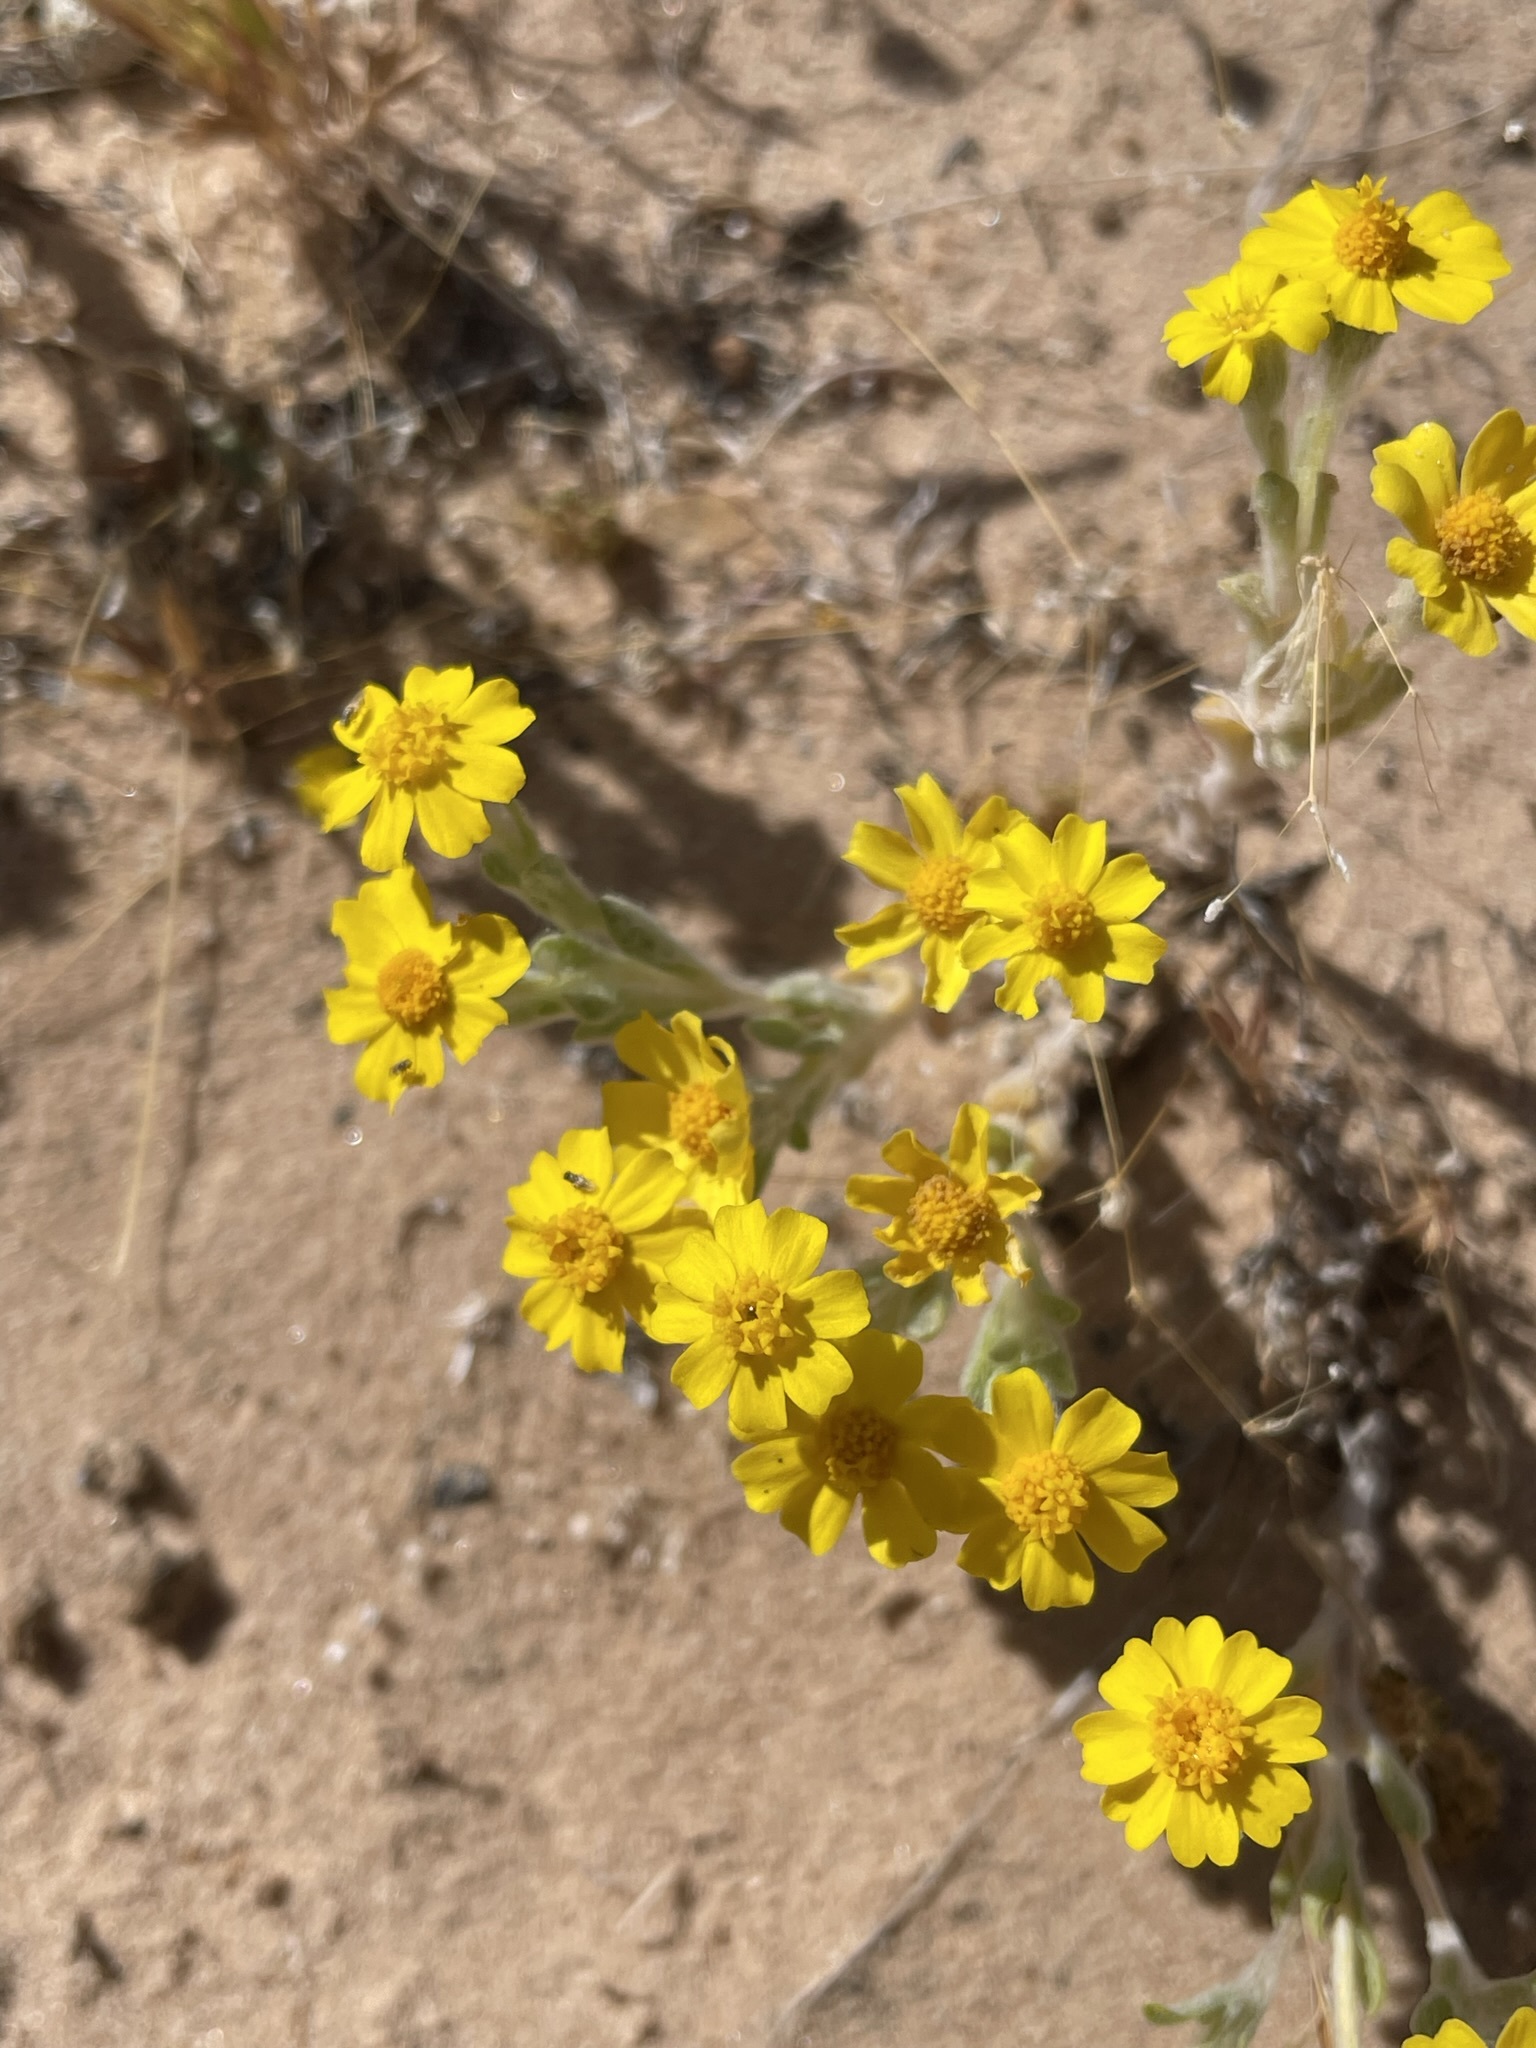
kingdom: Plantae
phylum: Tracheophyta
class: Magnoliopsida
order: Asterales
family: Asteraceae
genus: Eriophyllum
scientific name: Eriophyllum wallacei
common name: Wallace's woolly daisy
